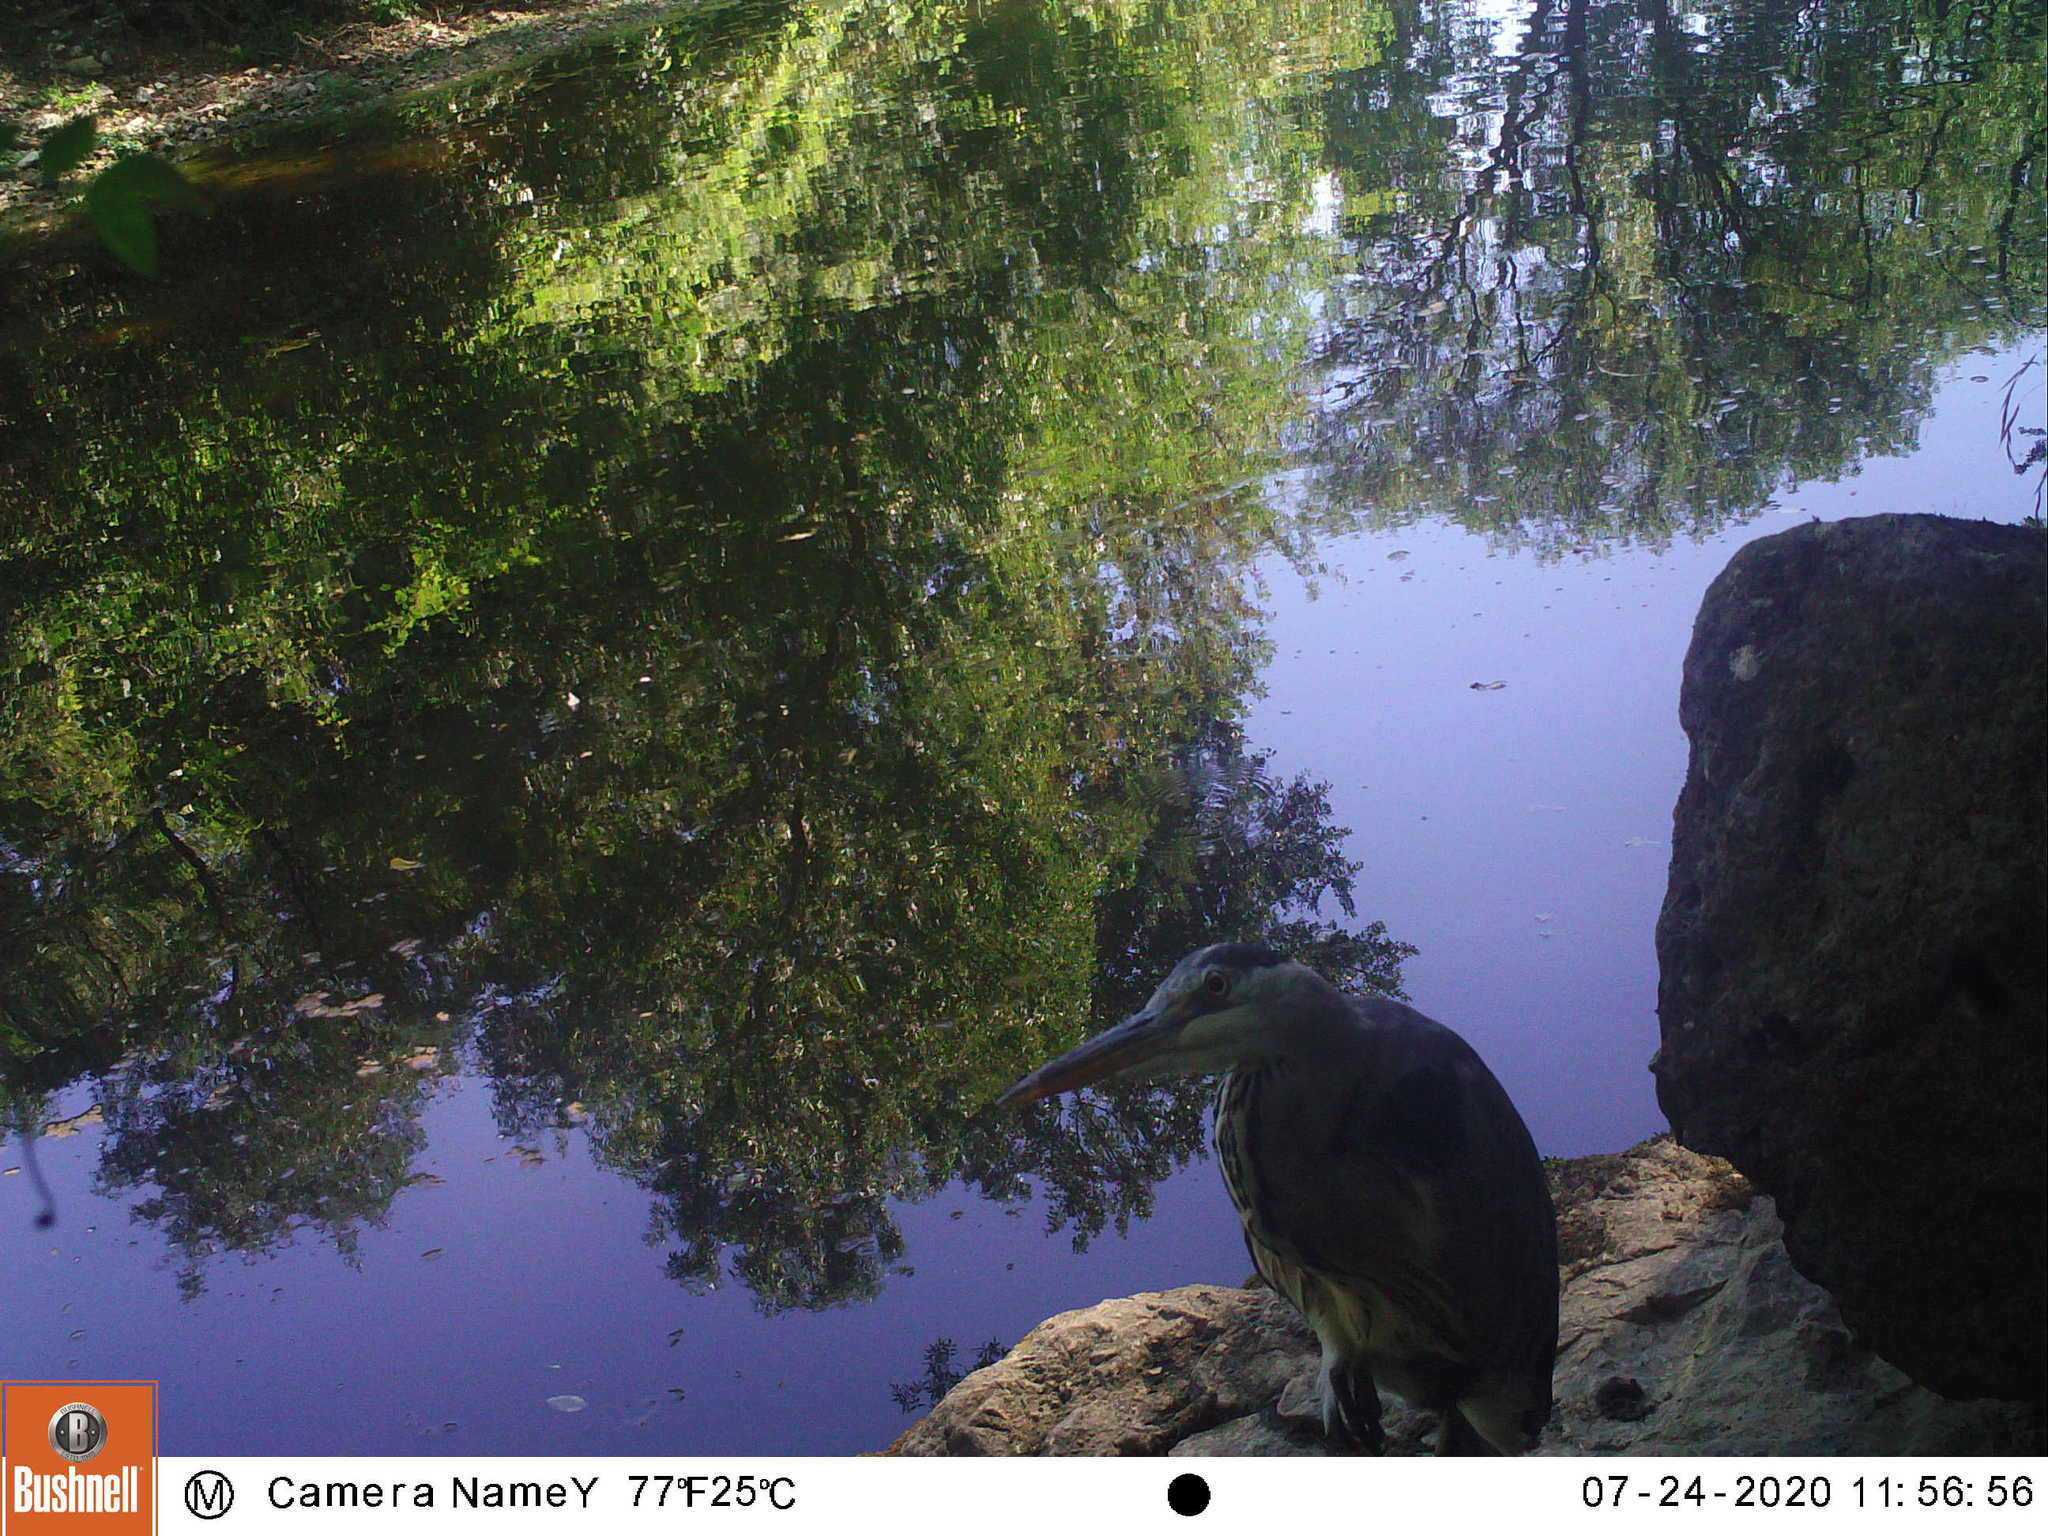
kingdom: Animalia
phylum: Chordata
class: Aves
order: Pelecaniformes
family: Ardeidae
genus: Ardea
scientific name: Ardea cinerea
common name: Grey heron
